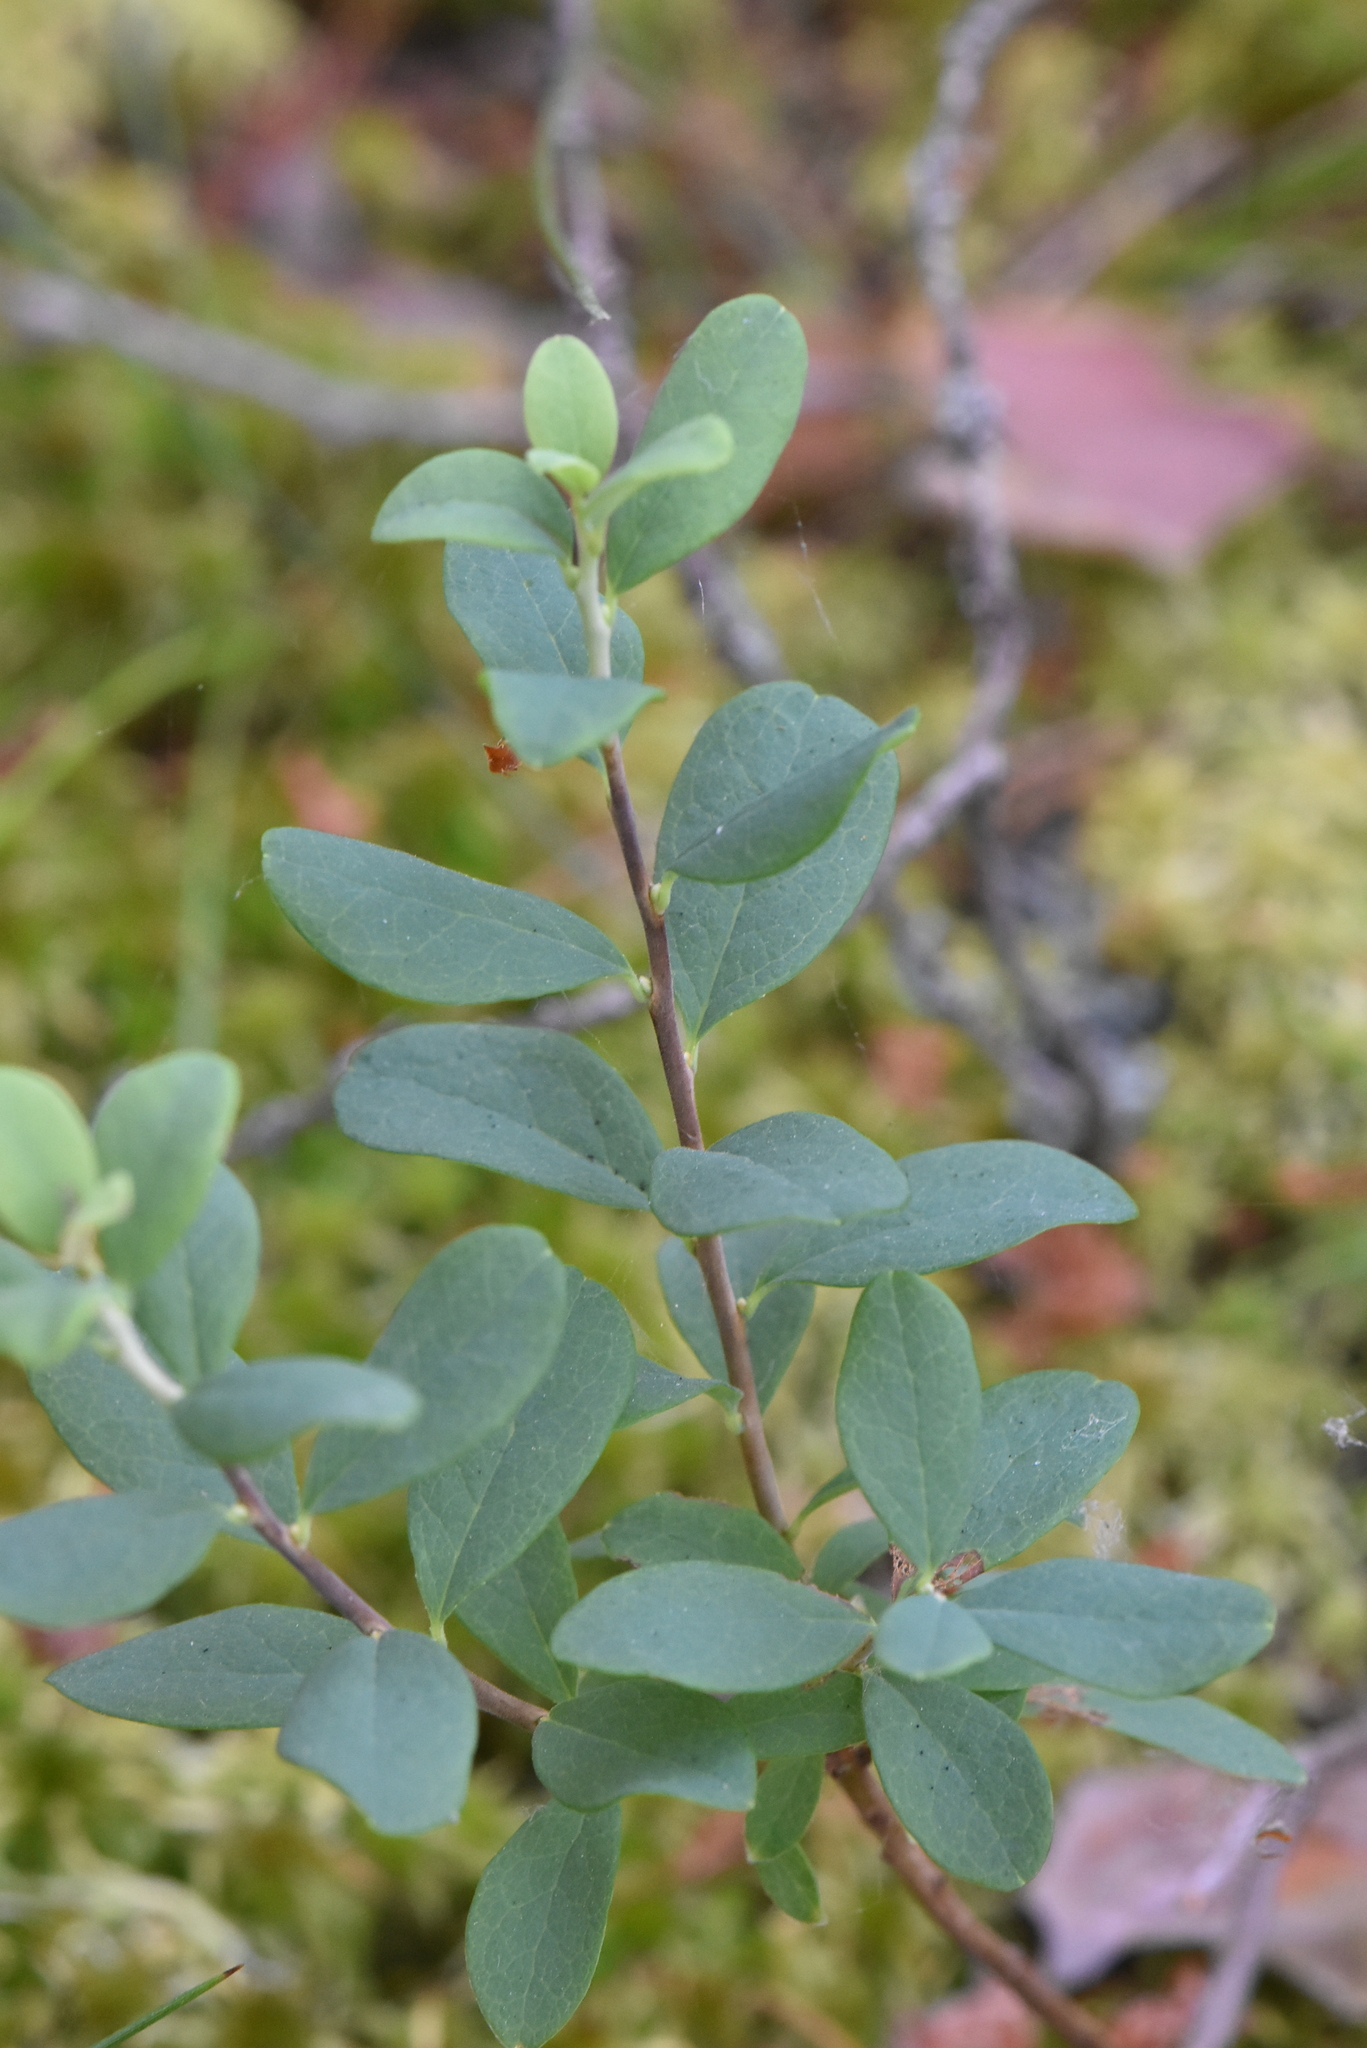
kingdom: Plantae
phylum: Tracheophyta
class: Magnoliopsida
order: Ericales
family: Ericaceae
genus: Vaccinium
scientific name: Vaccinium uliginosum
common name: Bog bilberry
